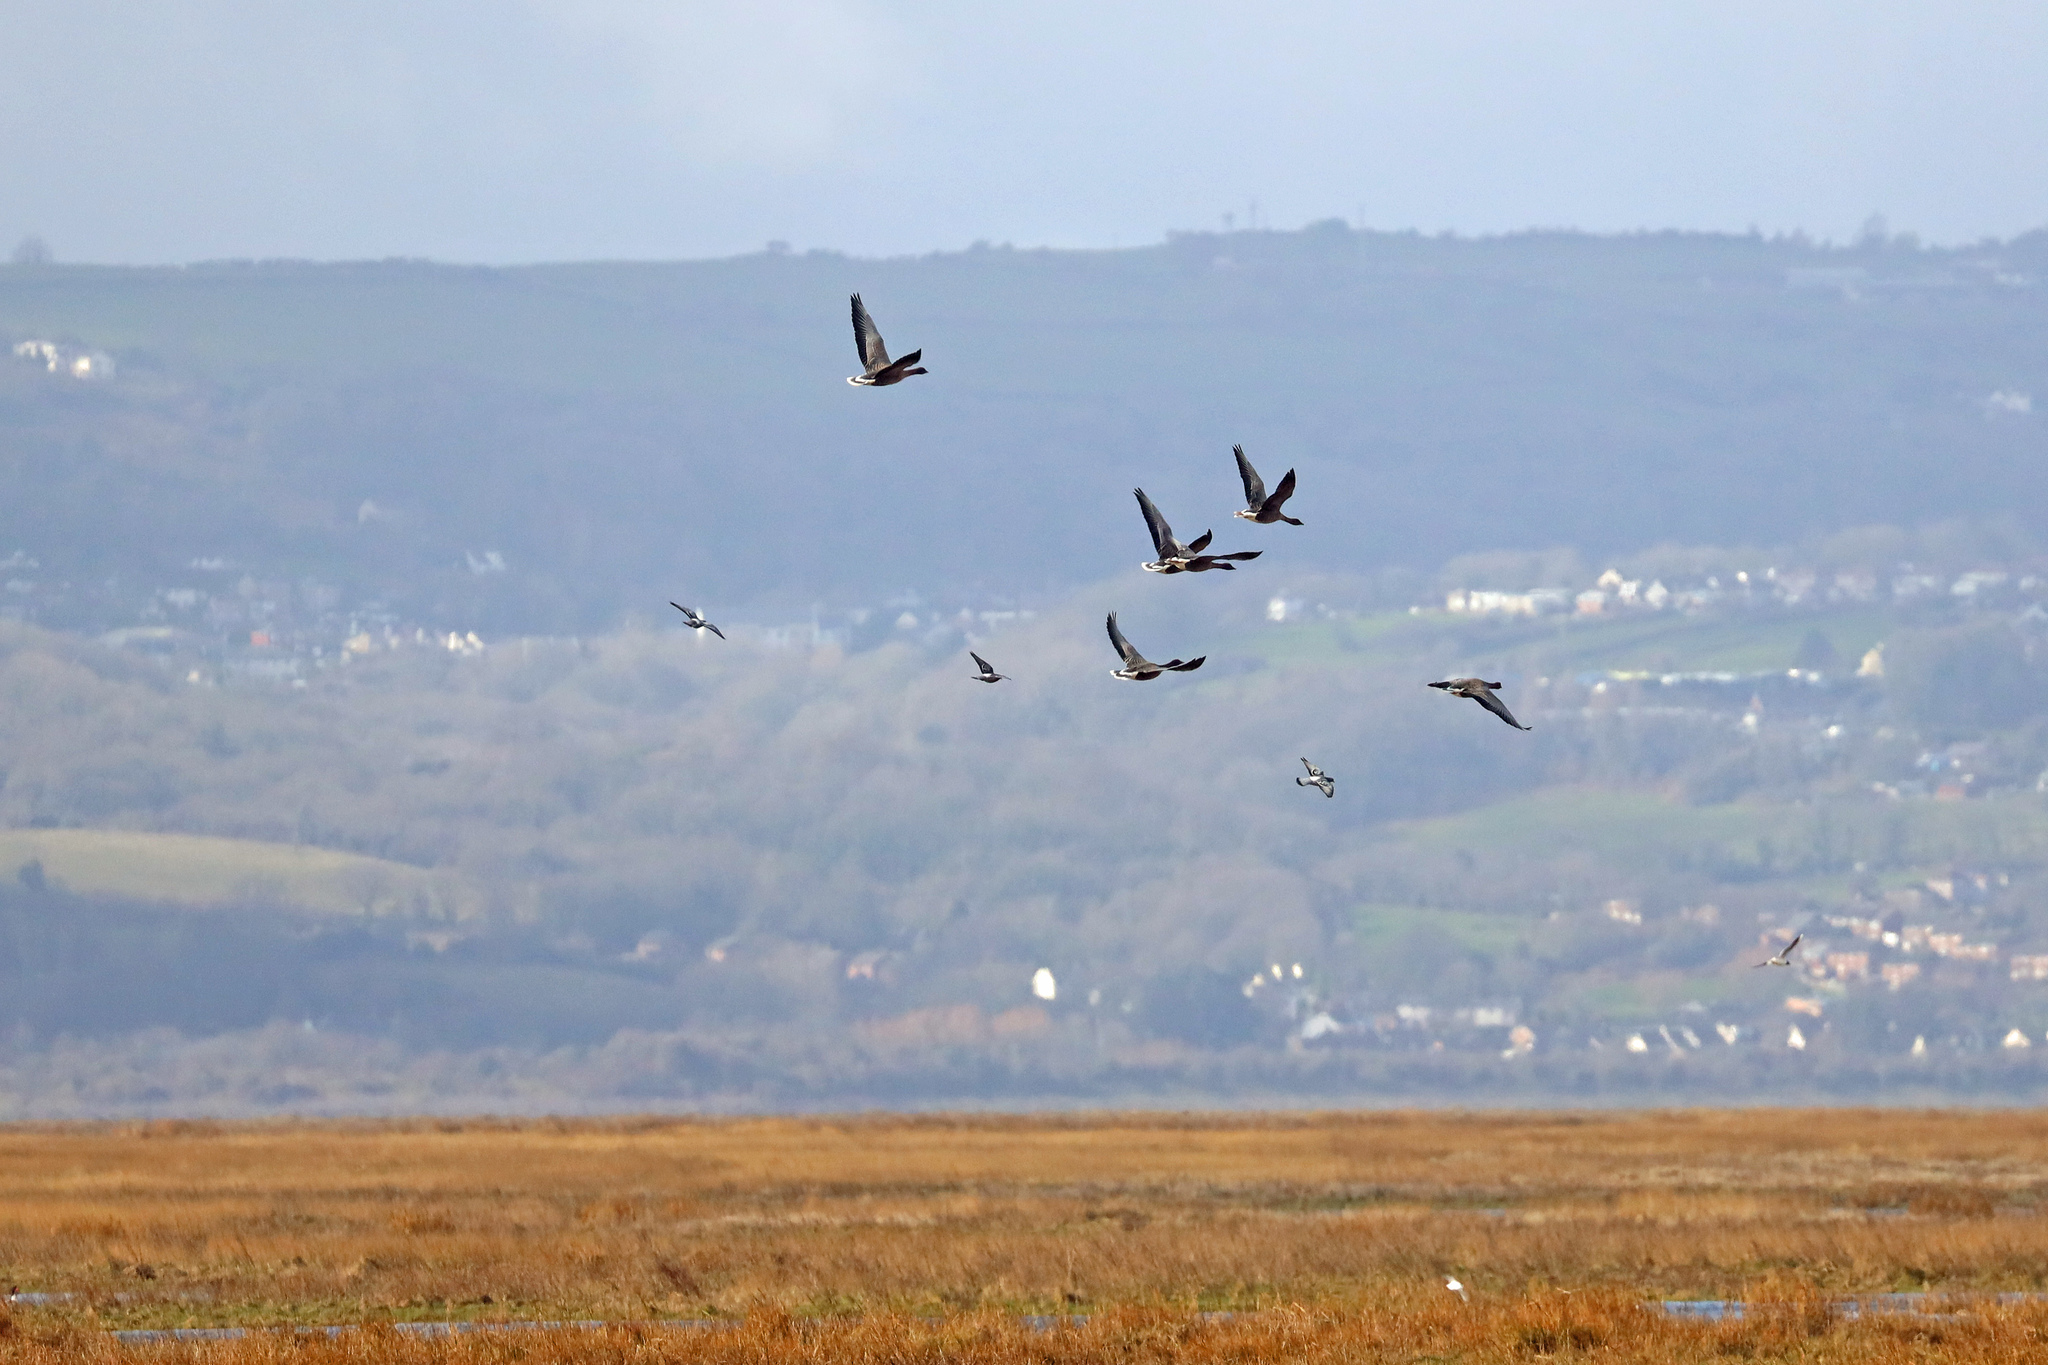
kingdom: Animalia
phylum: Chordata
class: Aves
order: Anseriformes
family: Anatidae
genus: Anser
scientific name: Anser brachyrhynchus
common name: Pink-footed goose
